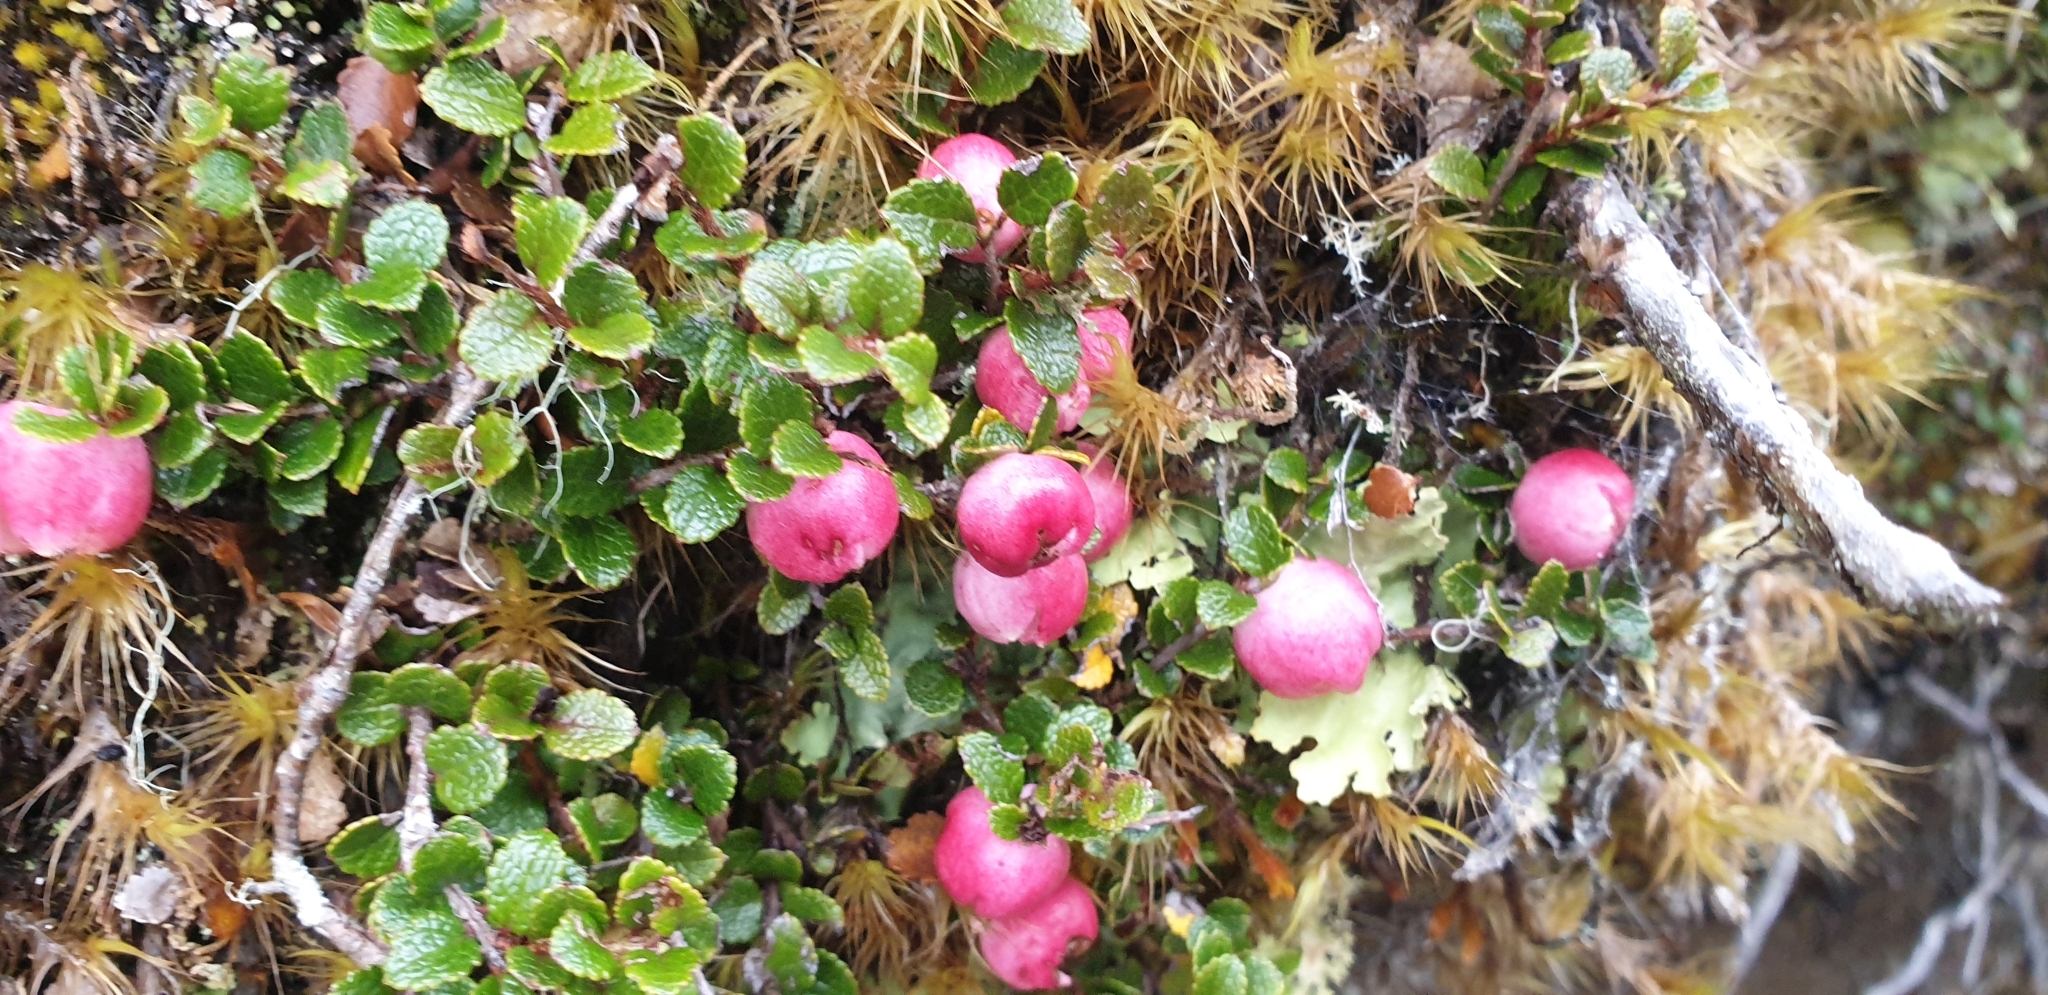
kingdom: Plantae
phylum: Tracheophyta
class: Magnoliopsida
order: Ericales
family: Ericaceae
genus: Gaultheria
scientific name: Gaultheria depressa
